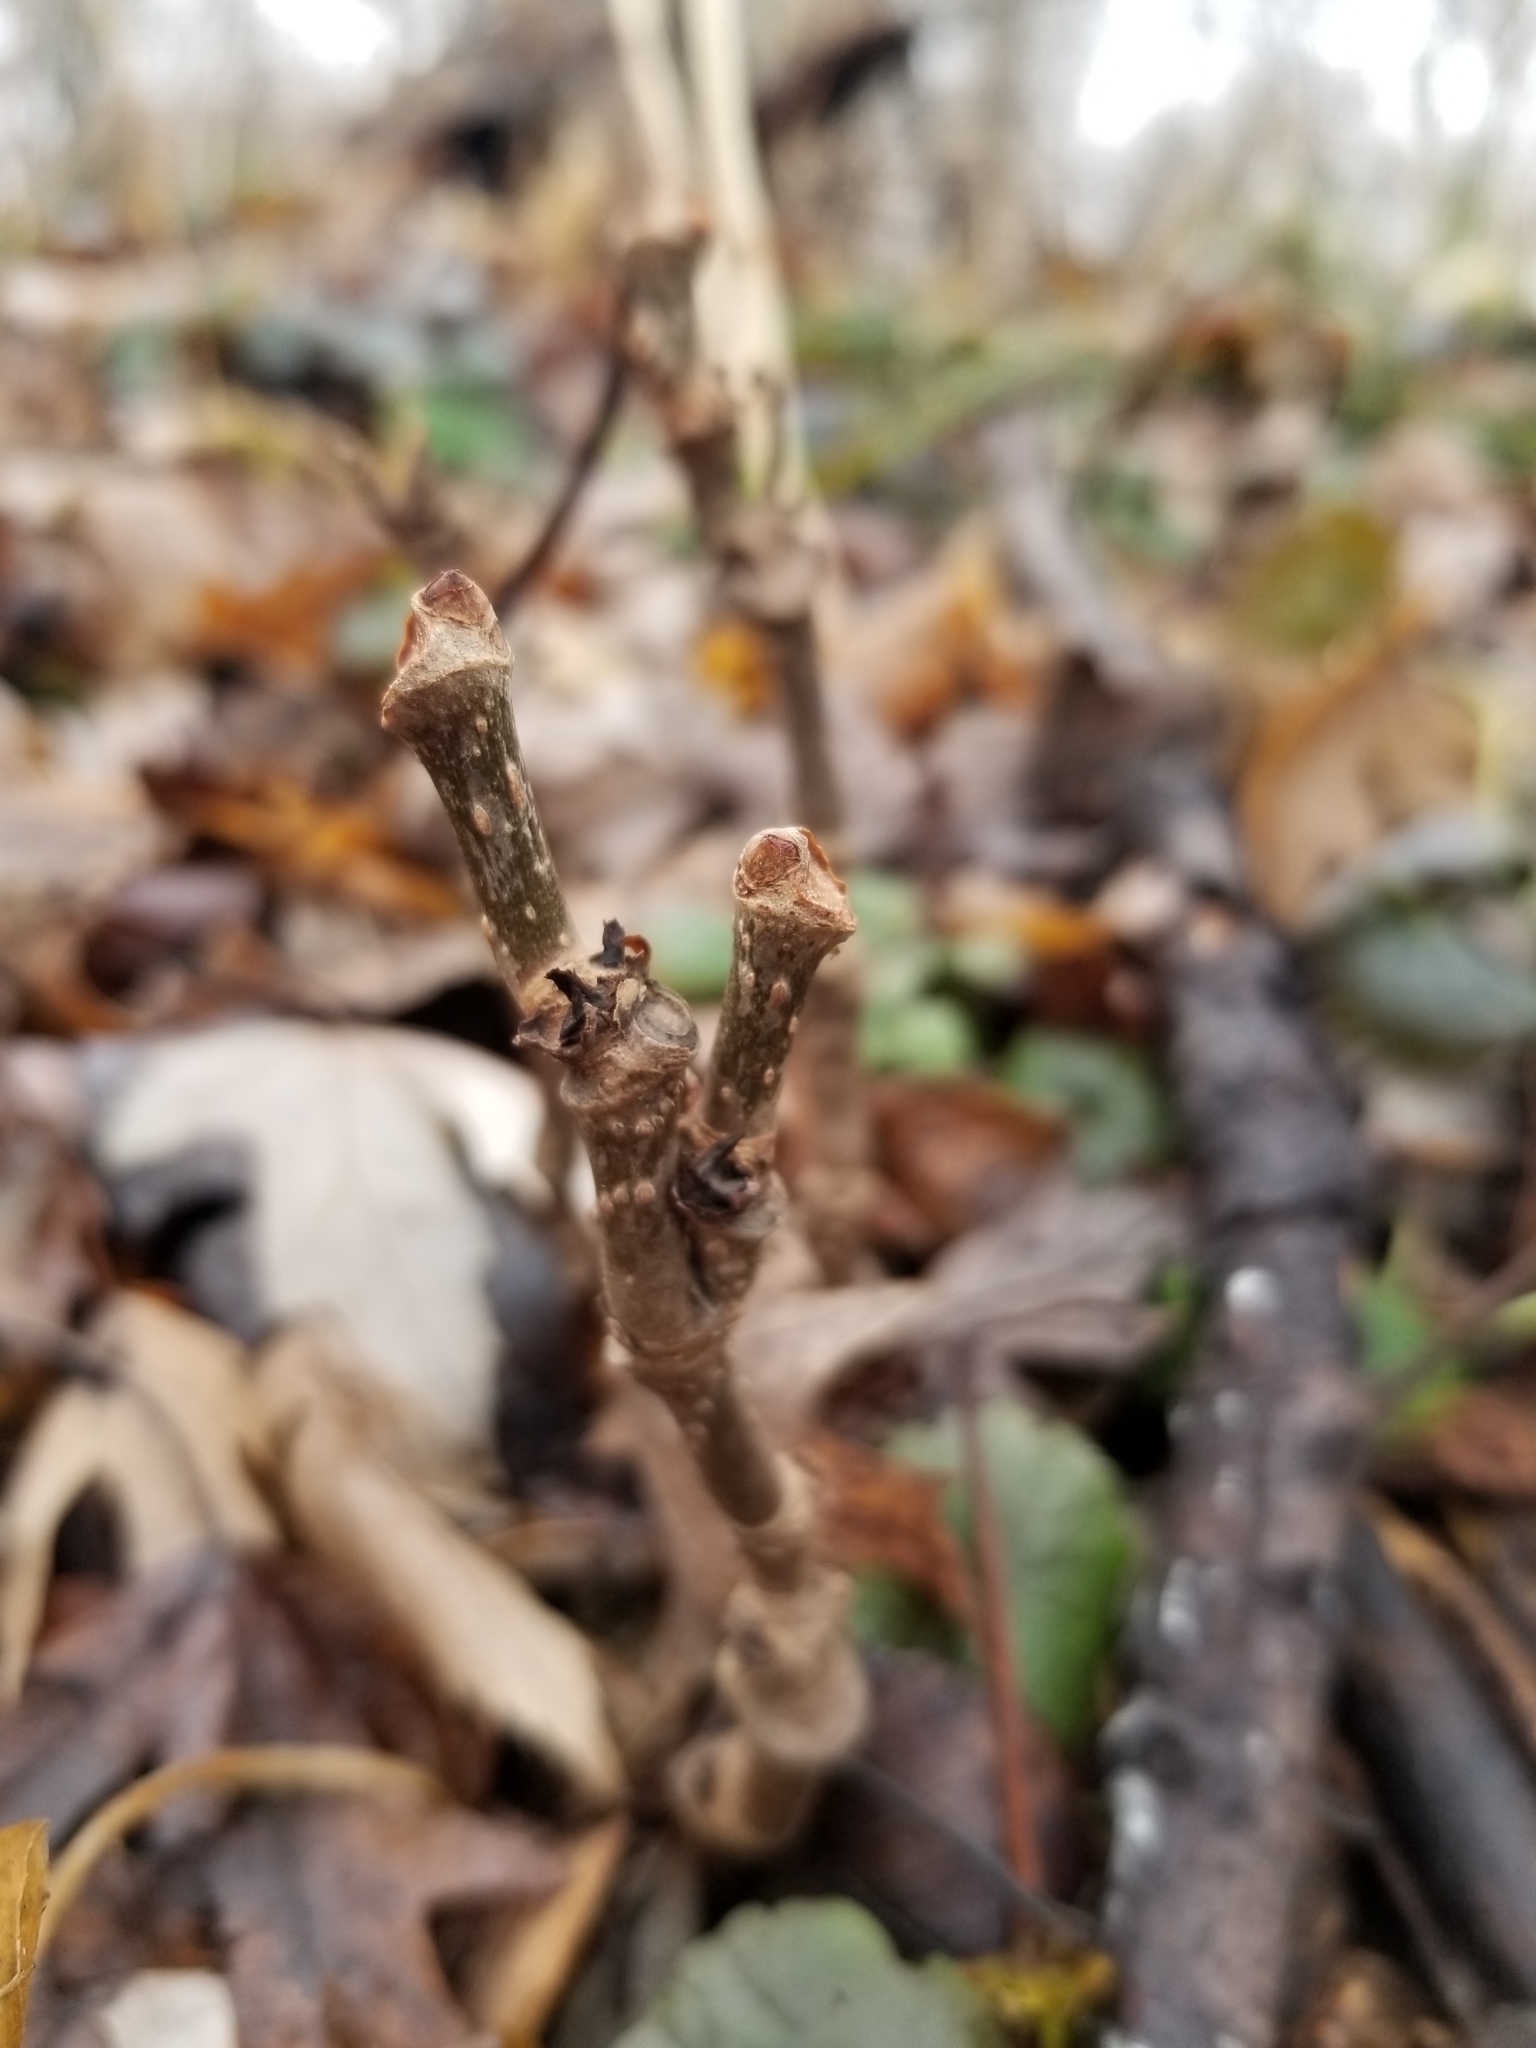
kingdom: Plantae
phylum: Tracheophyta
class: Magnoliopsida
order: Vitales
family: Vitaceae
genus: Parthenocissus
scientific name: Parthenocissus quinquefolia
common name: Virginia-creeper
